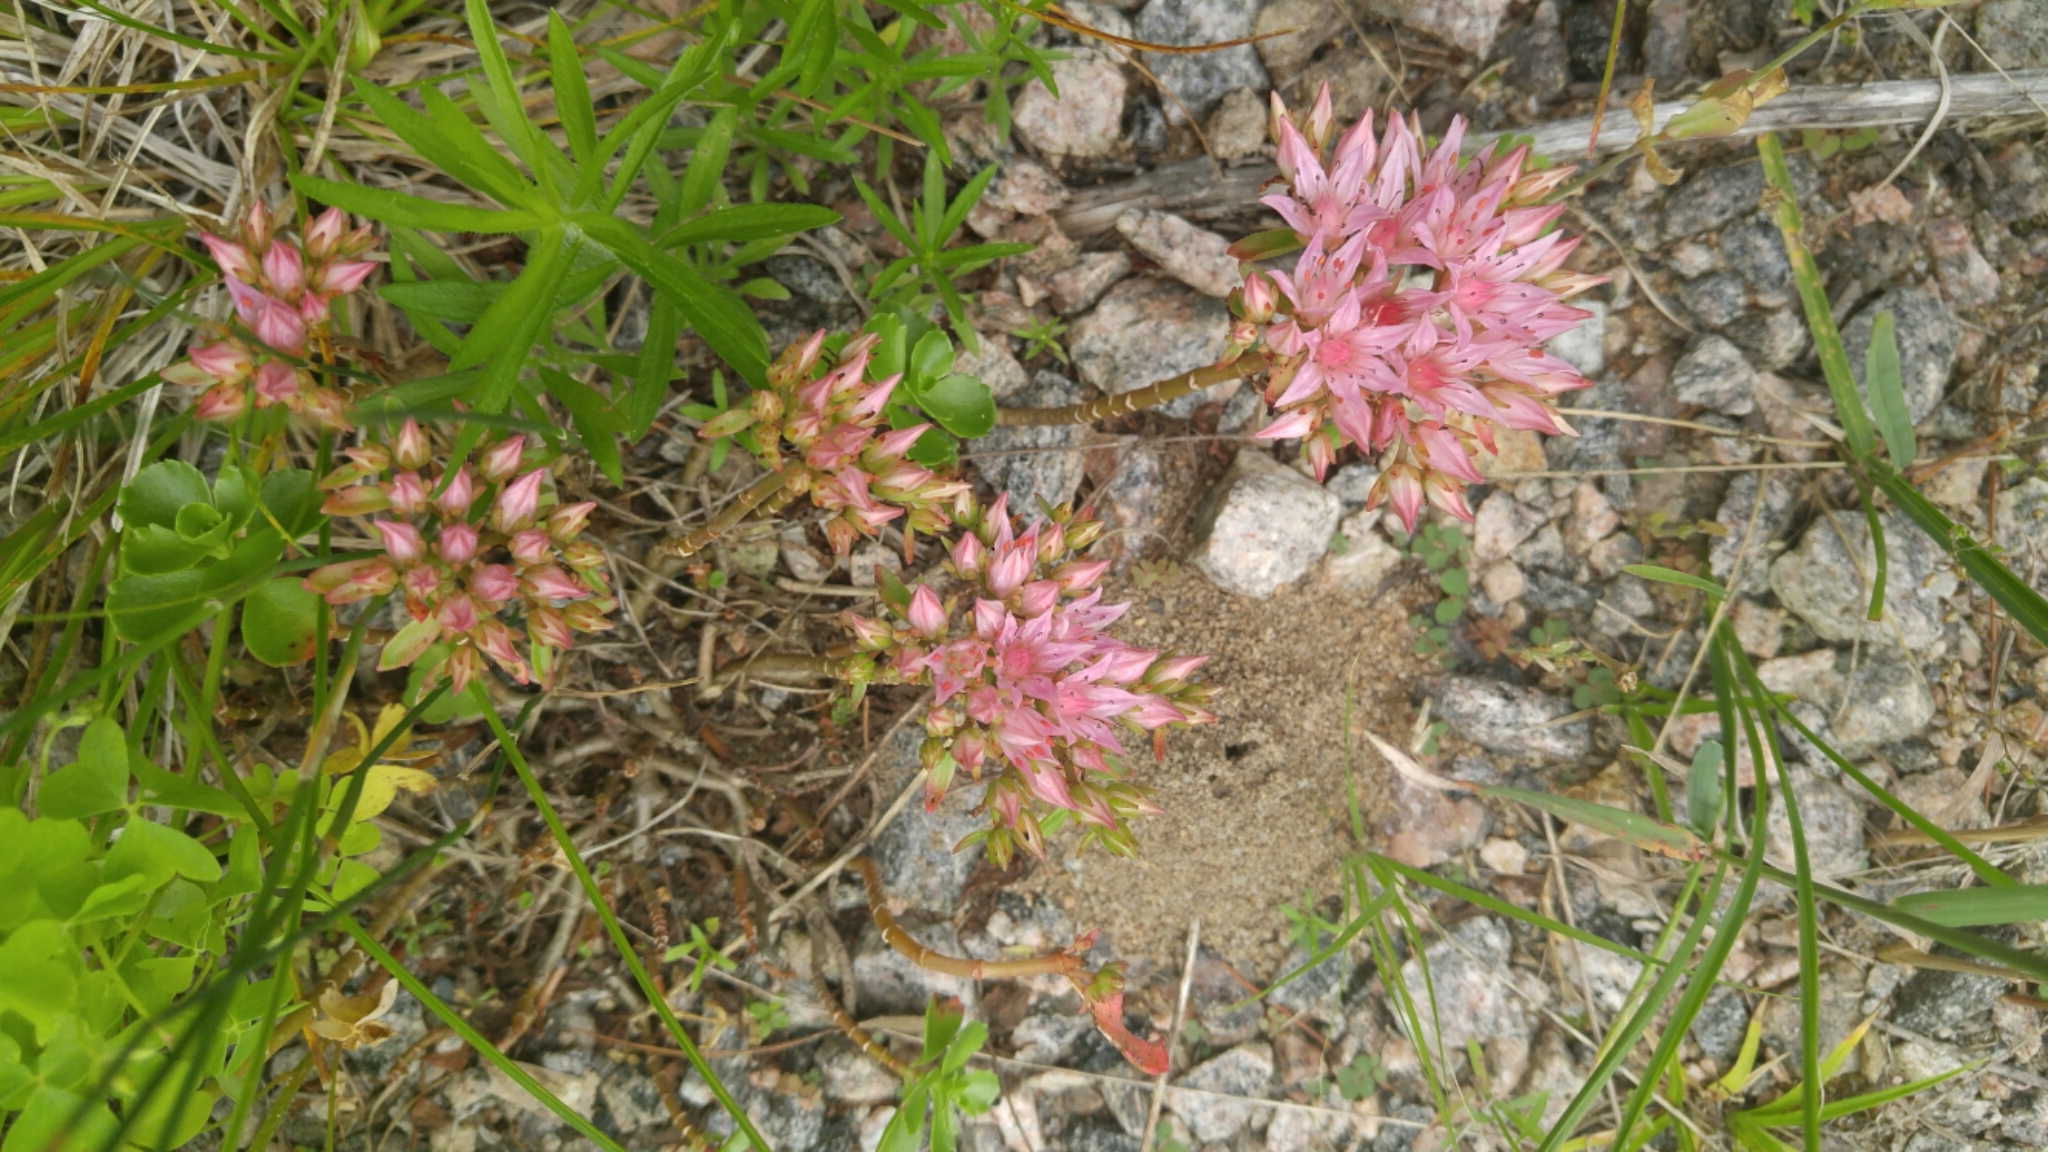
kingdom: Plantae
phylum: Tracheophyta
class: Magnoliopsida
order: Saxifragales
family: Crassulaceae
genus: Phedimus
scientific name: Phedimus spurius
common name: Caucasian stonecrop
